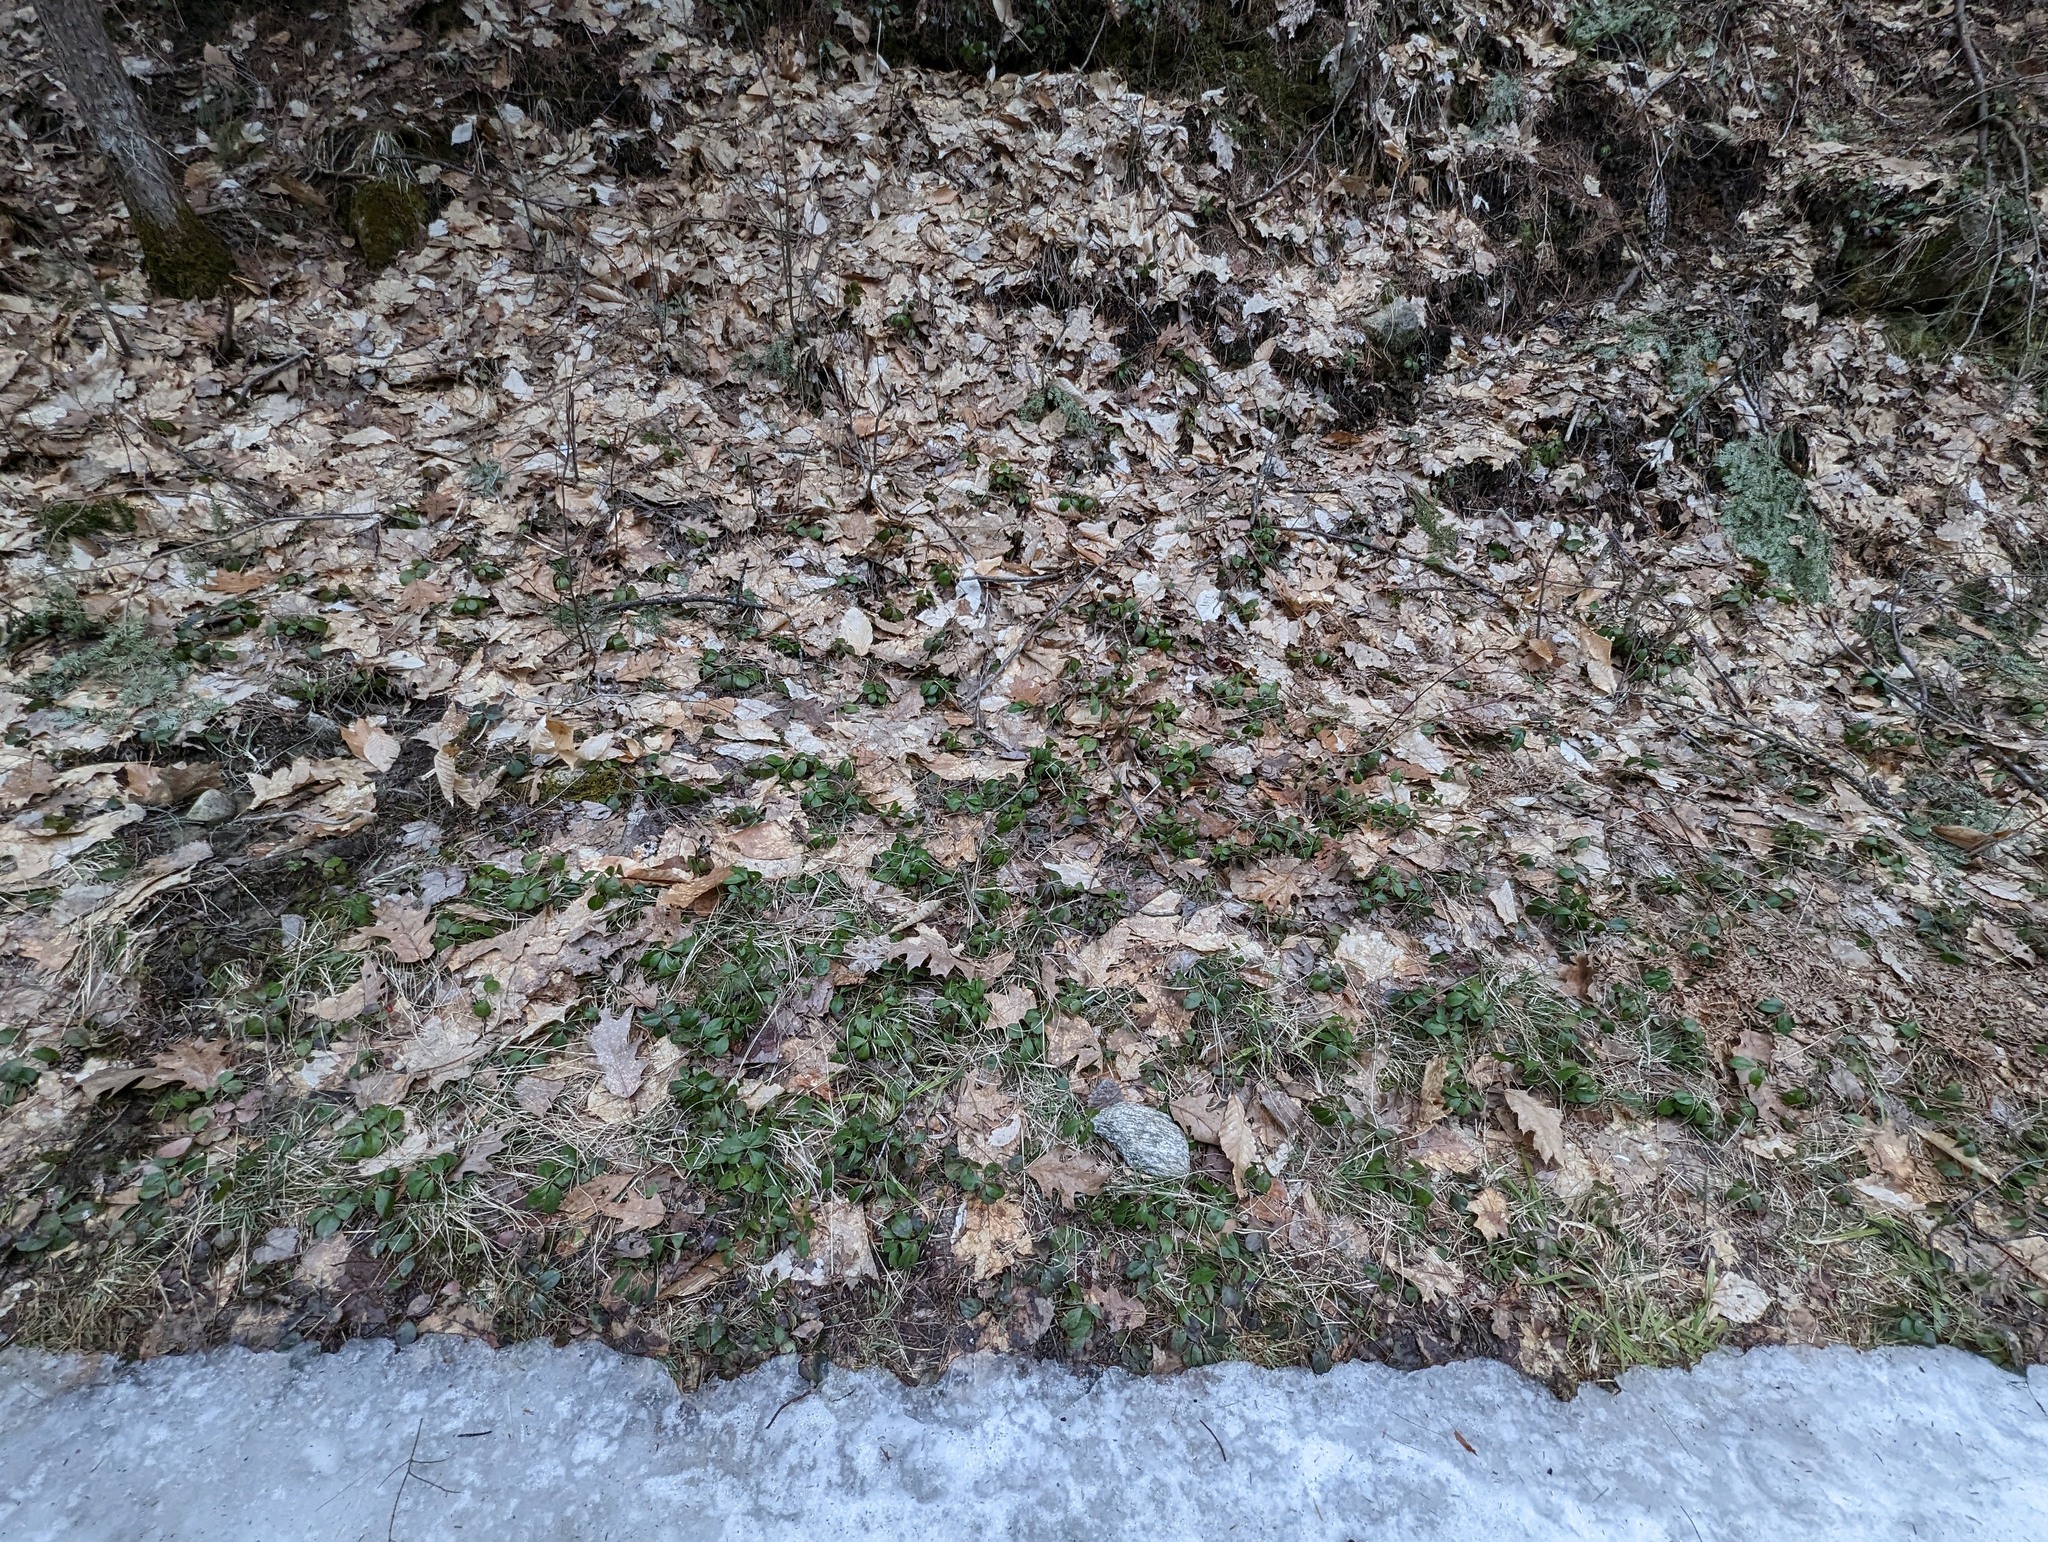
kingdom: Plantae
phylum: Tracheophyta
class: Magnoliopsida
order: Ericales
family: Ericaceae
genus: Gaultheria
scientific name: Gaultheria procumbens
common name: Checkerberry
